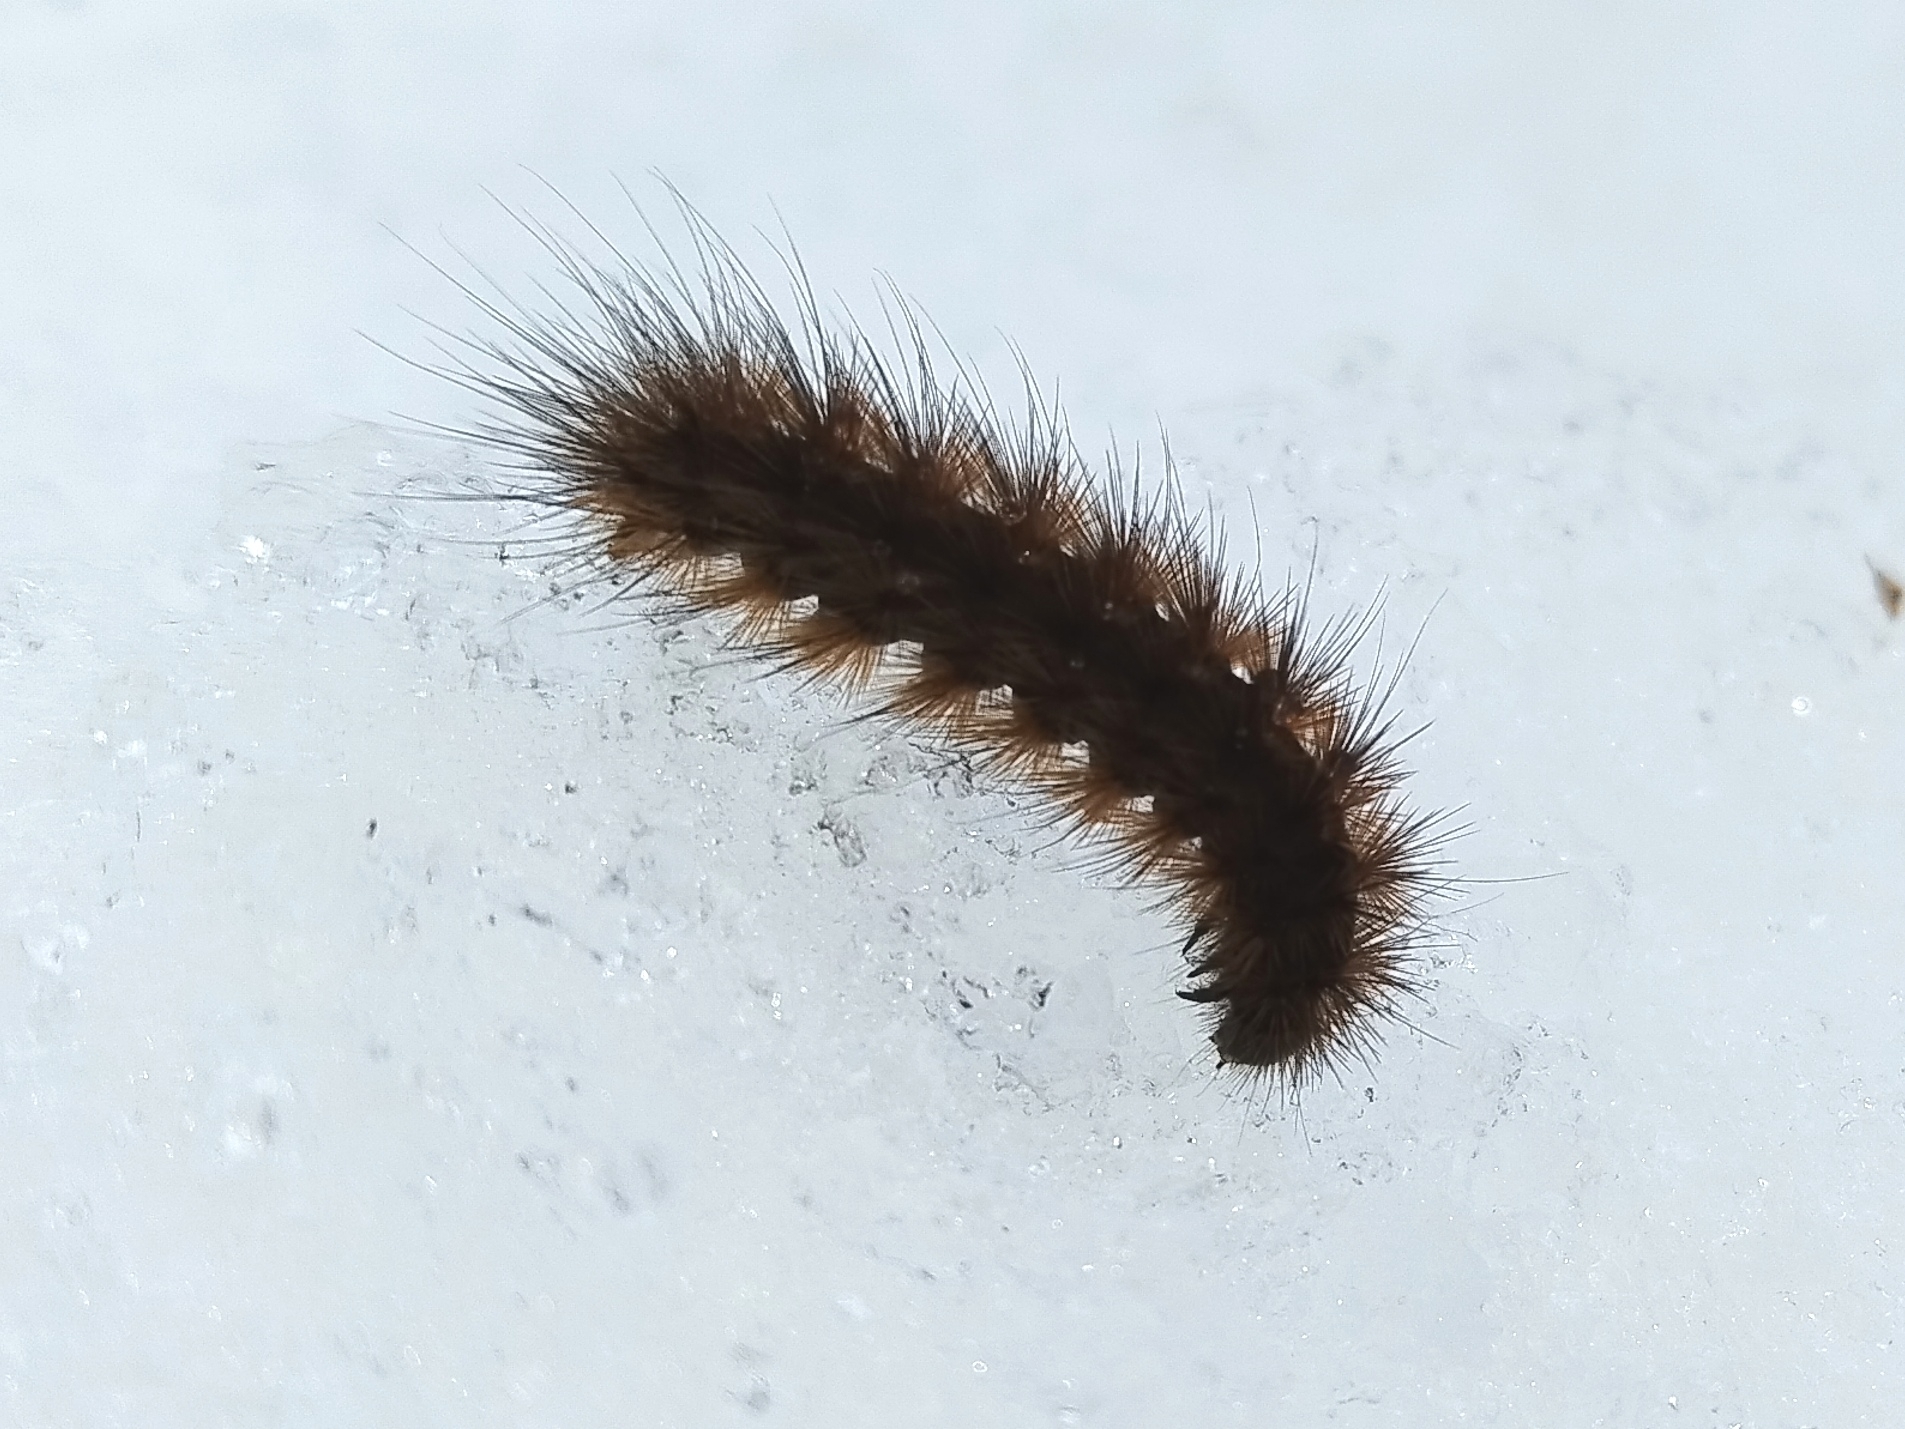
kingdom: Animalia
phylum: Arthropoda
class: Insecta
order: Lepidoptera
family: Erebidae
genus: Phragmatobia
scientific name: Phragmatobia fuliginosa
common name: Ruby tiger
